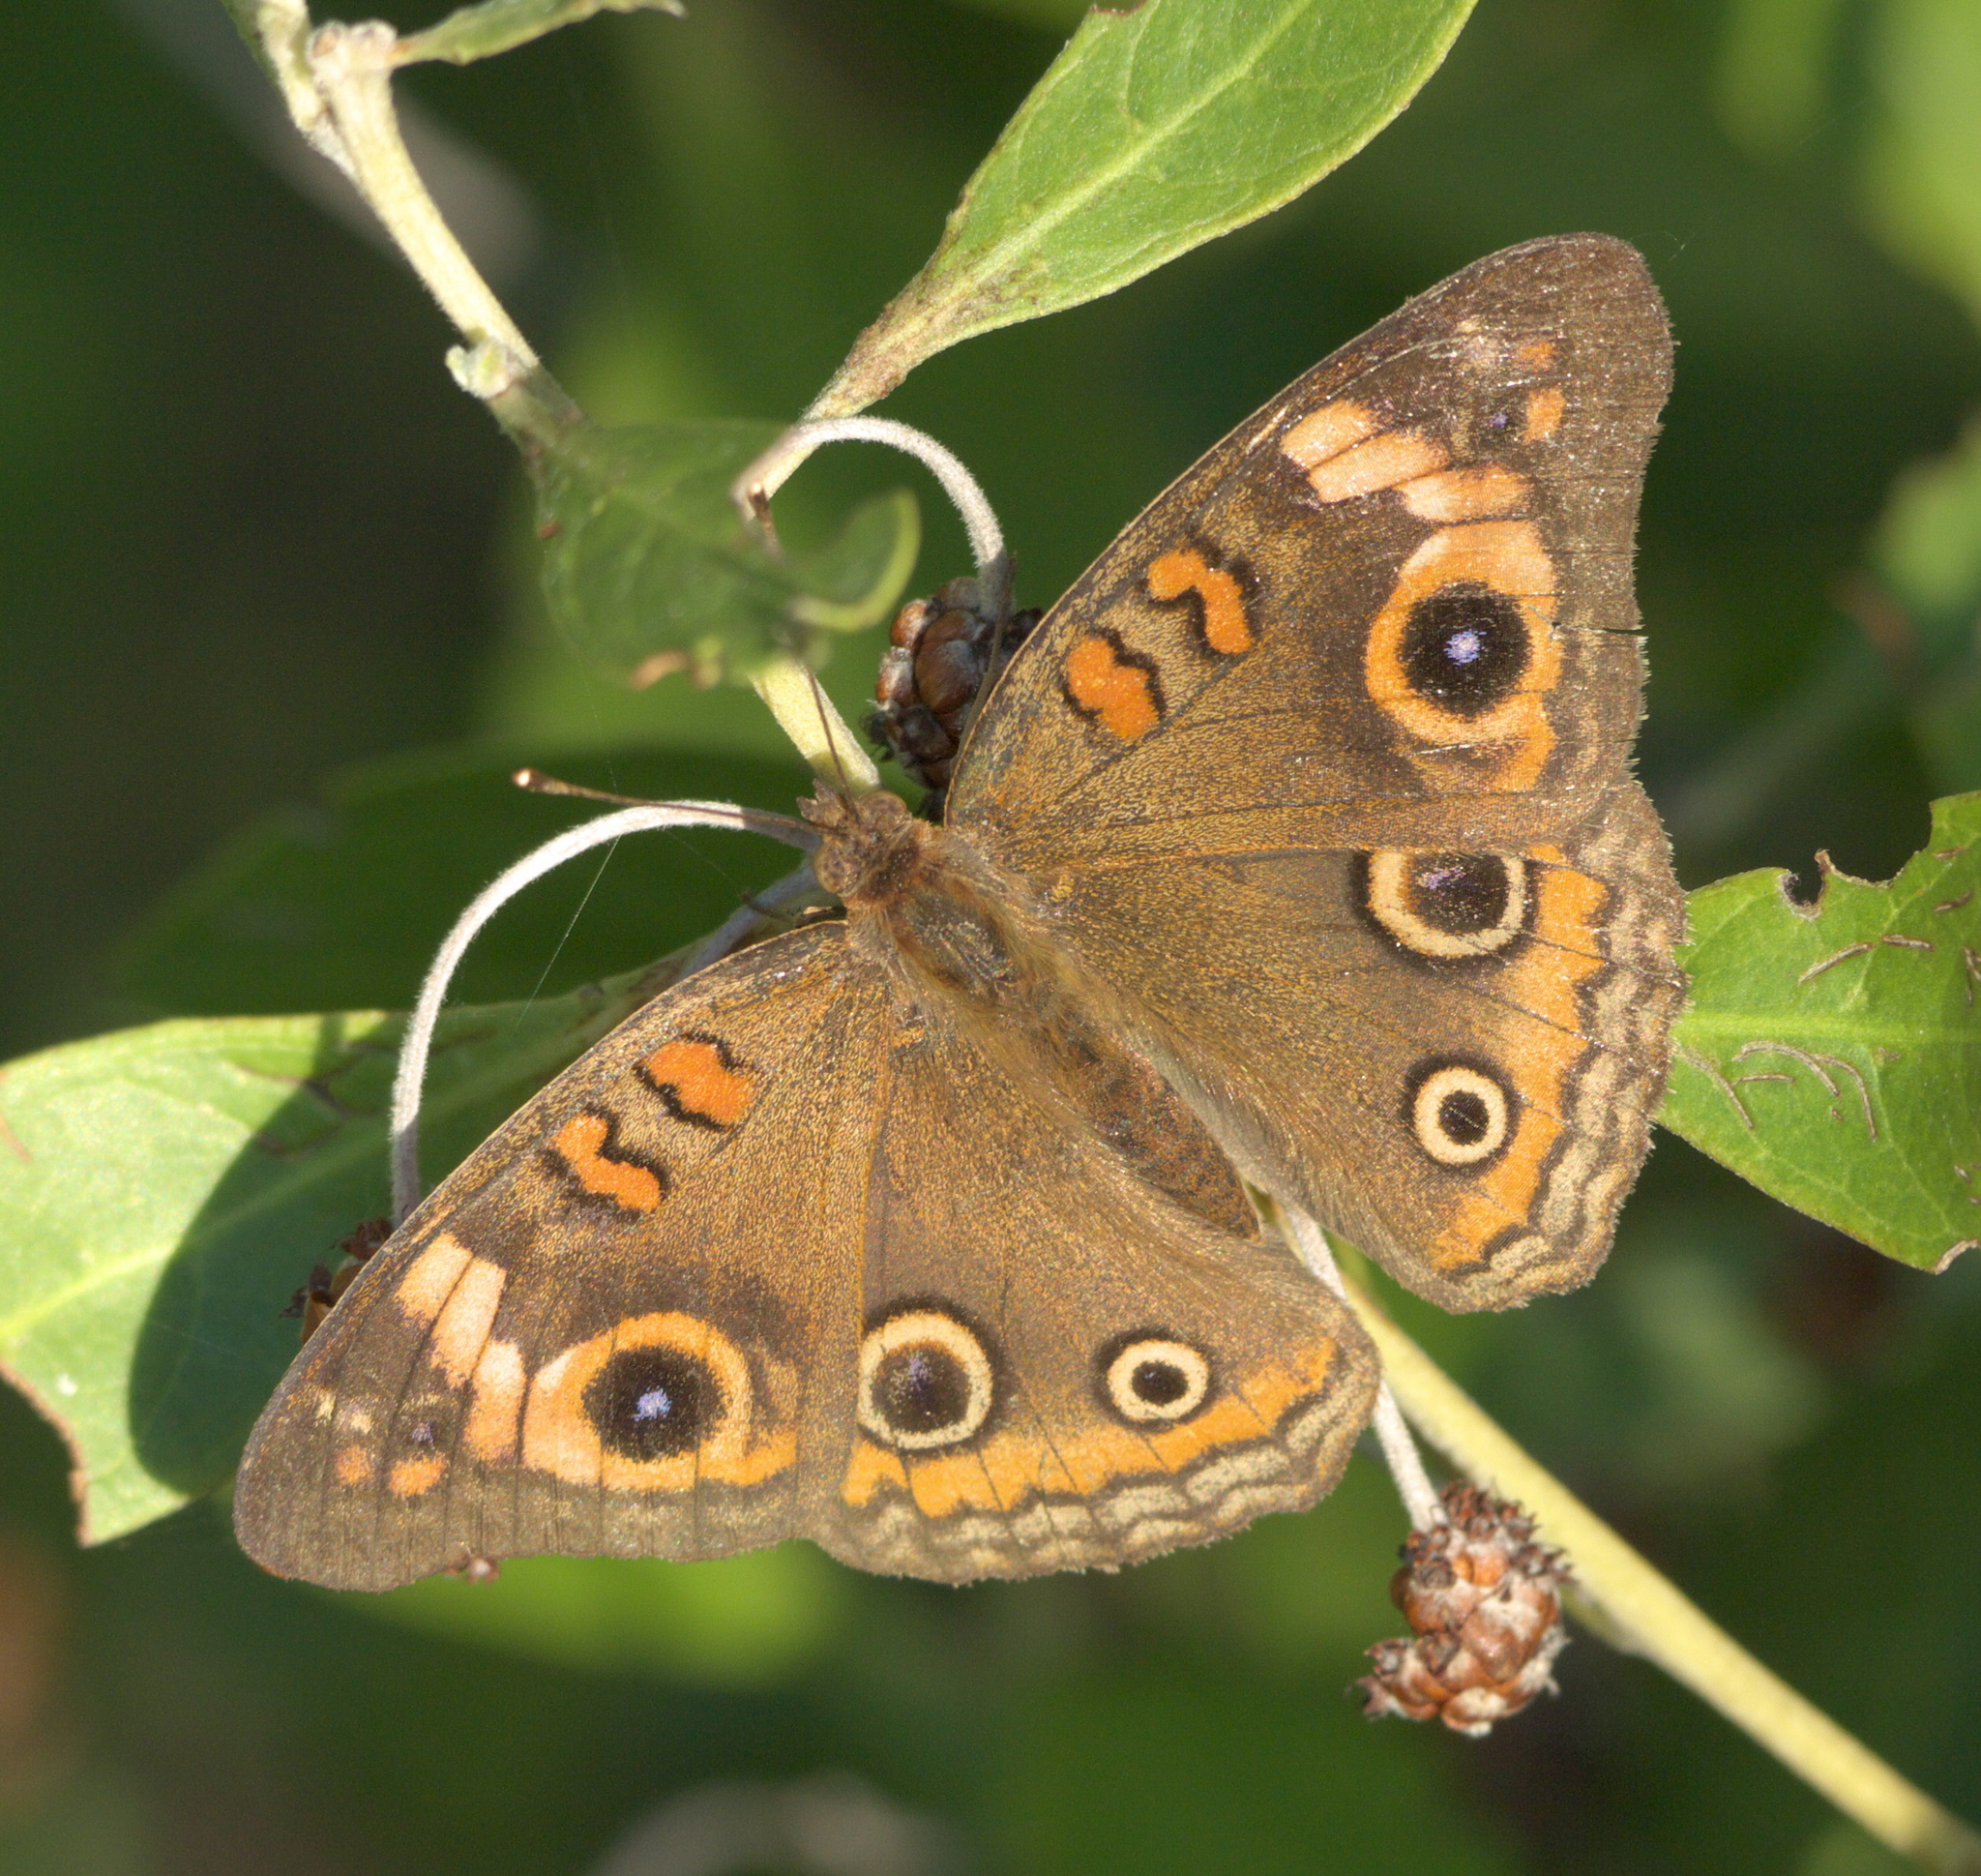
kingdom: Animalia
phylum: Arthropoda
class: Insecta
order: Lepidoptera
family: Nymphalidae
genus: Junonia
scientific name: Junonia neildi
